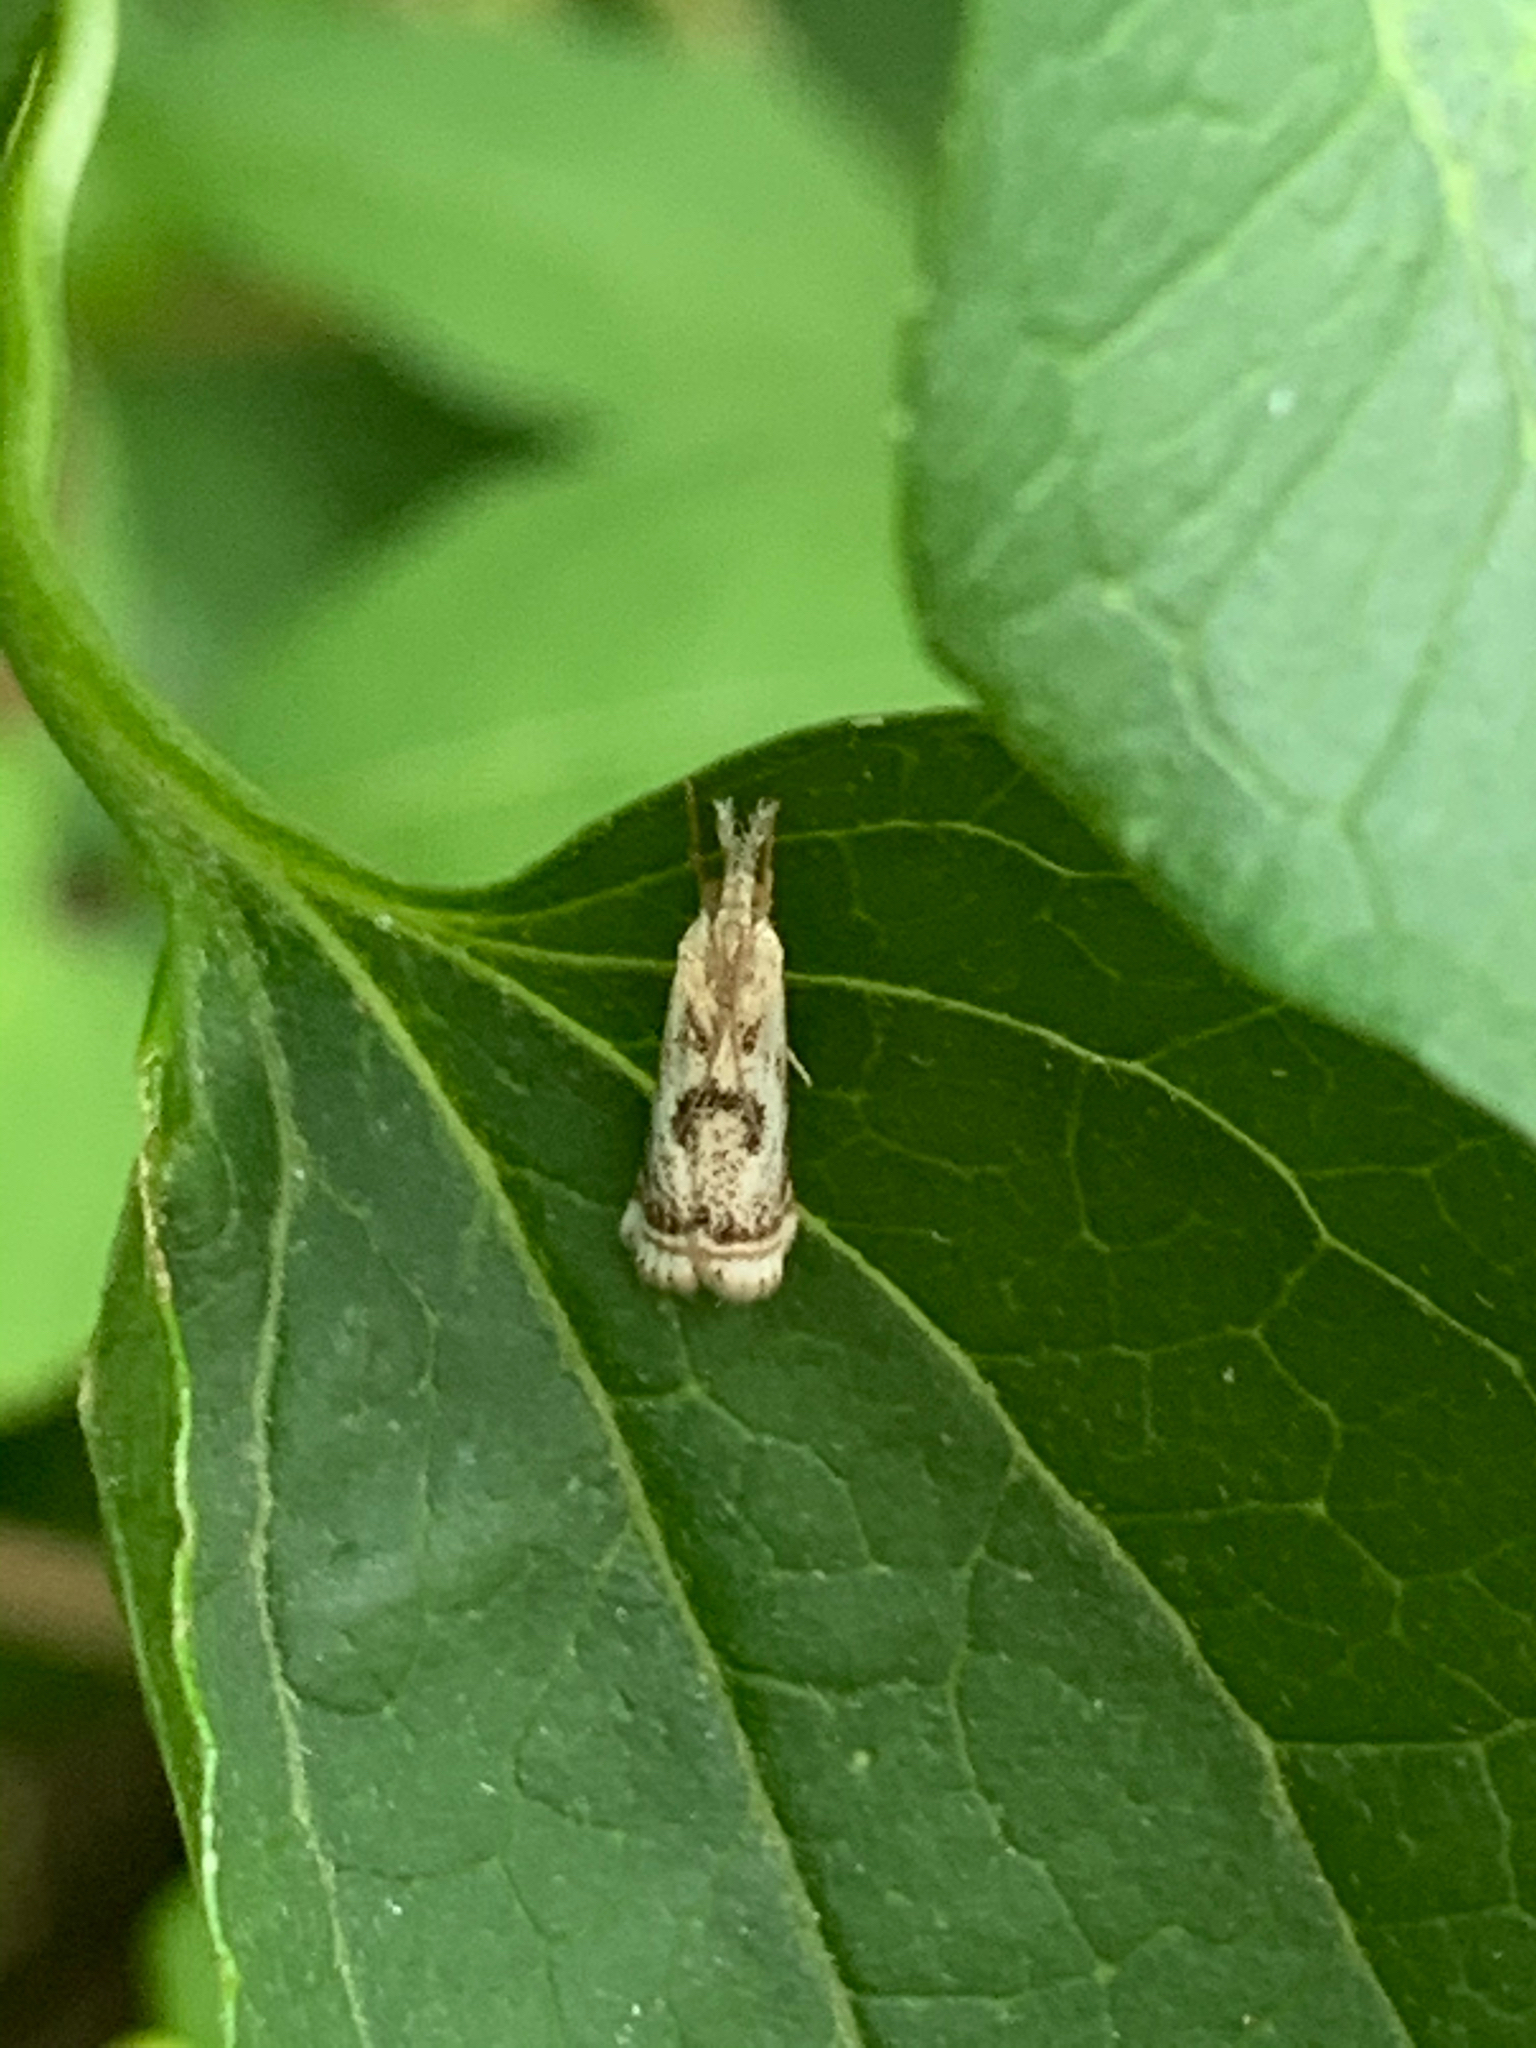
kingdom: Animalia
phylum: Arthropoda
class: Insecta
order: Lepidoptera
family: Crambidae
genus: Microcrambus
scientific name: Microcrambus elegans
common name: Elegant grass-veneer
